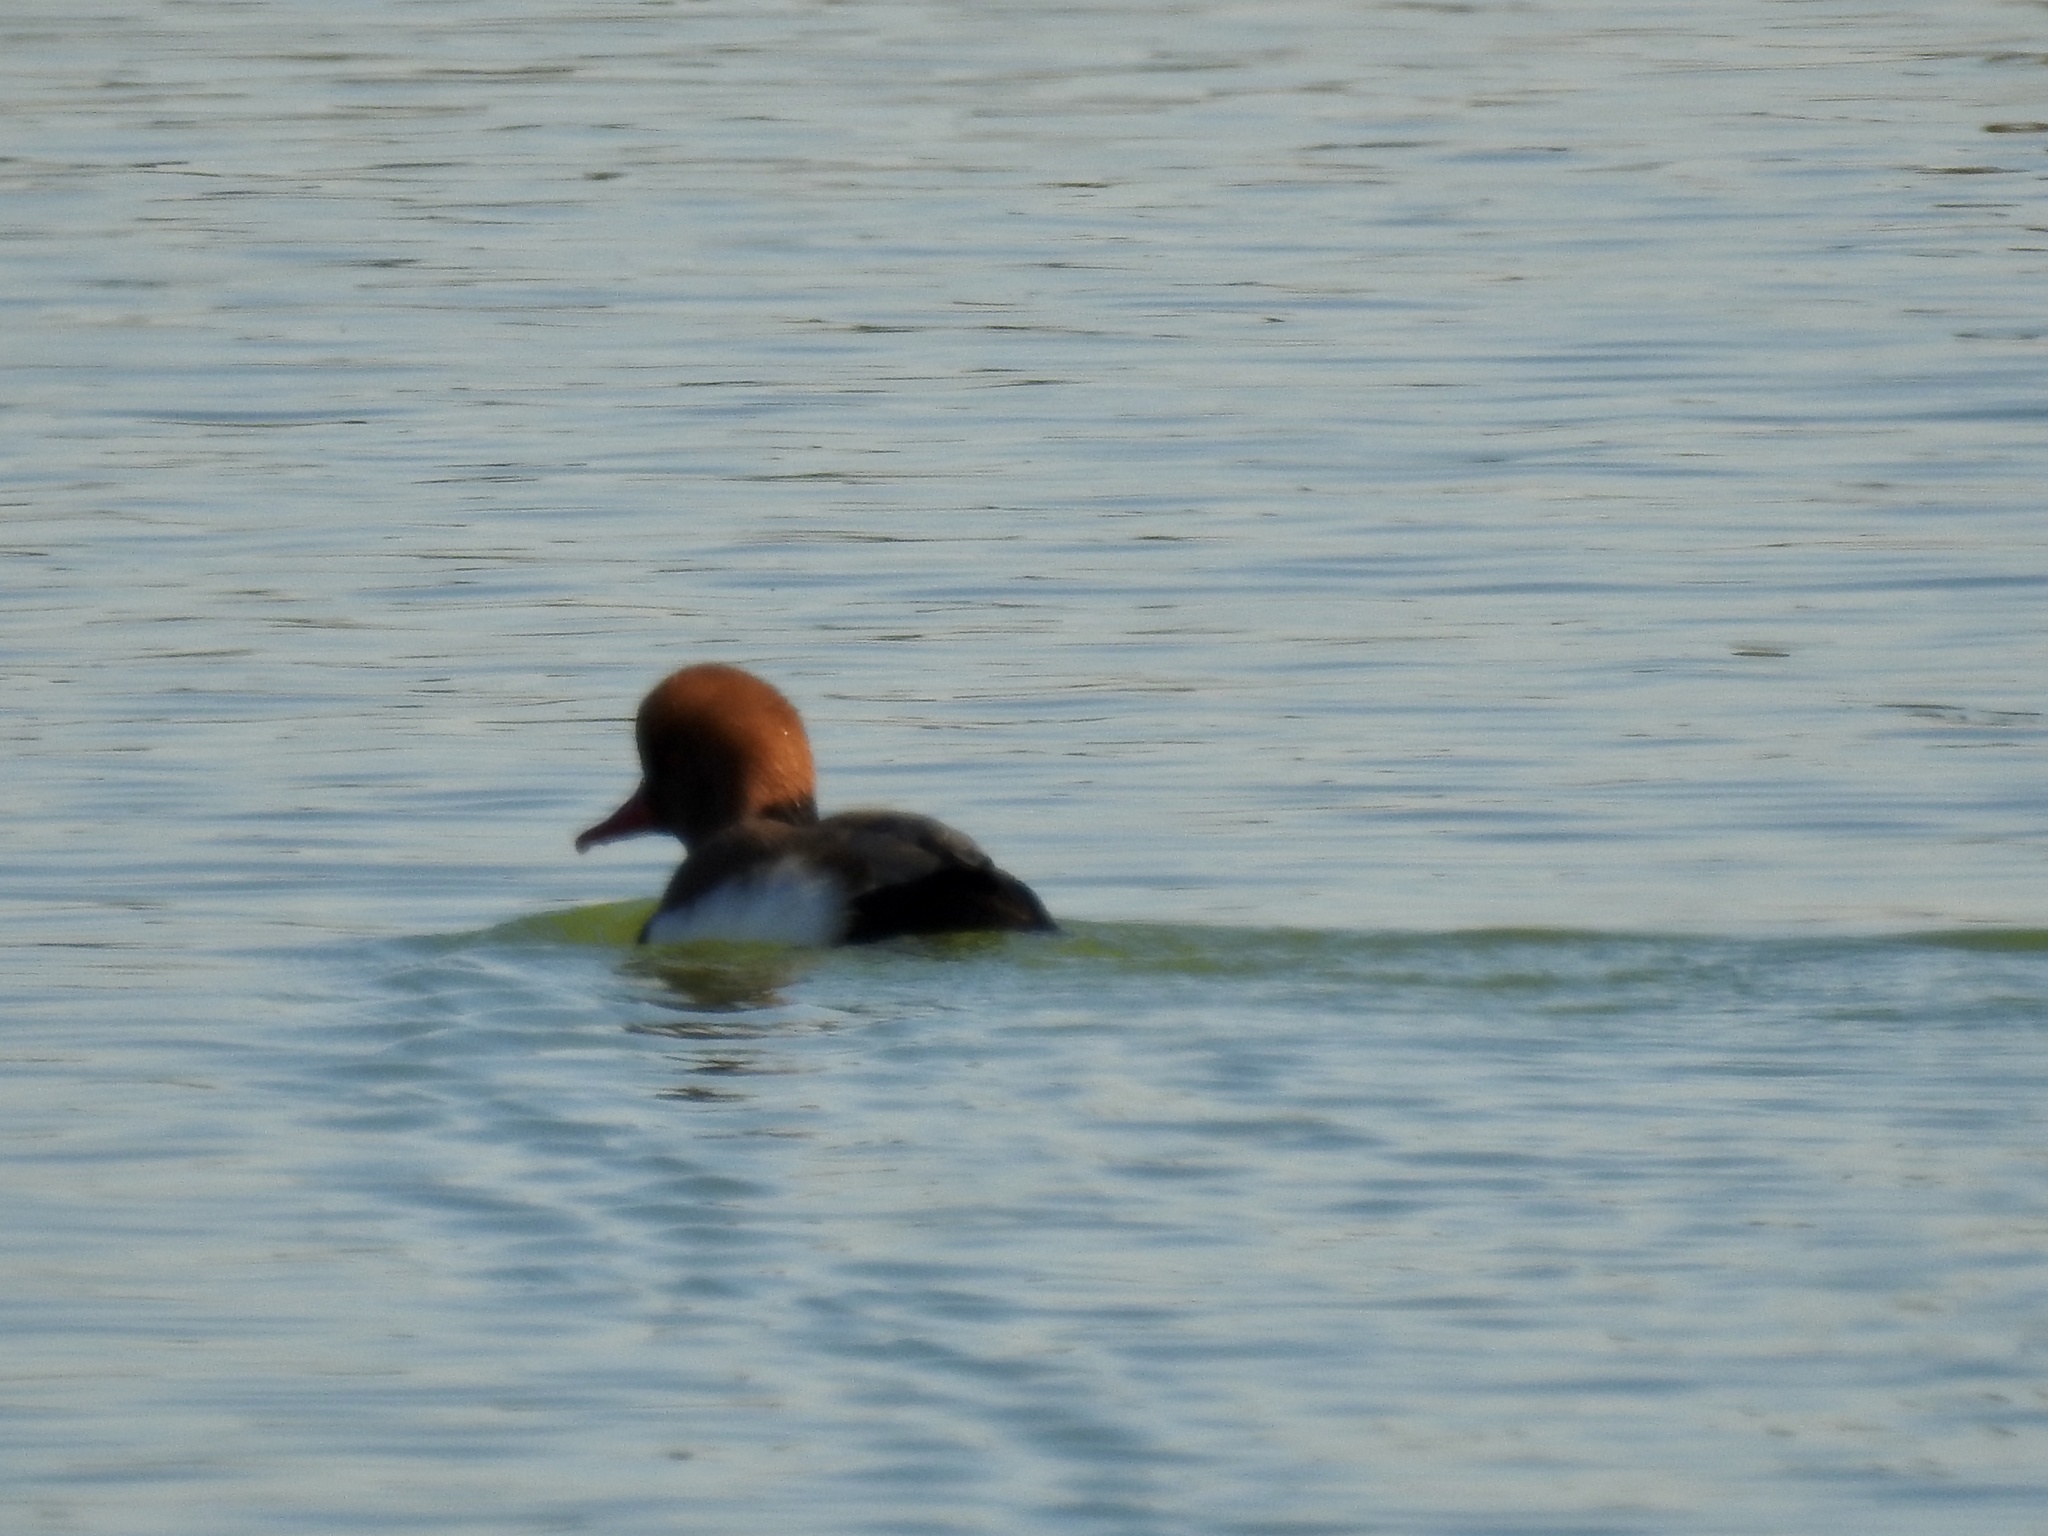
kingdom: Animalia
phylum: Chordata
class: Aves
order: Anseriformes
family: Anatidae
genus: Netta
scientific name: Netta rufina
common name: Red-crested pochard
